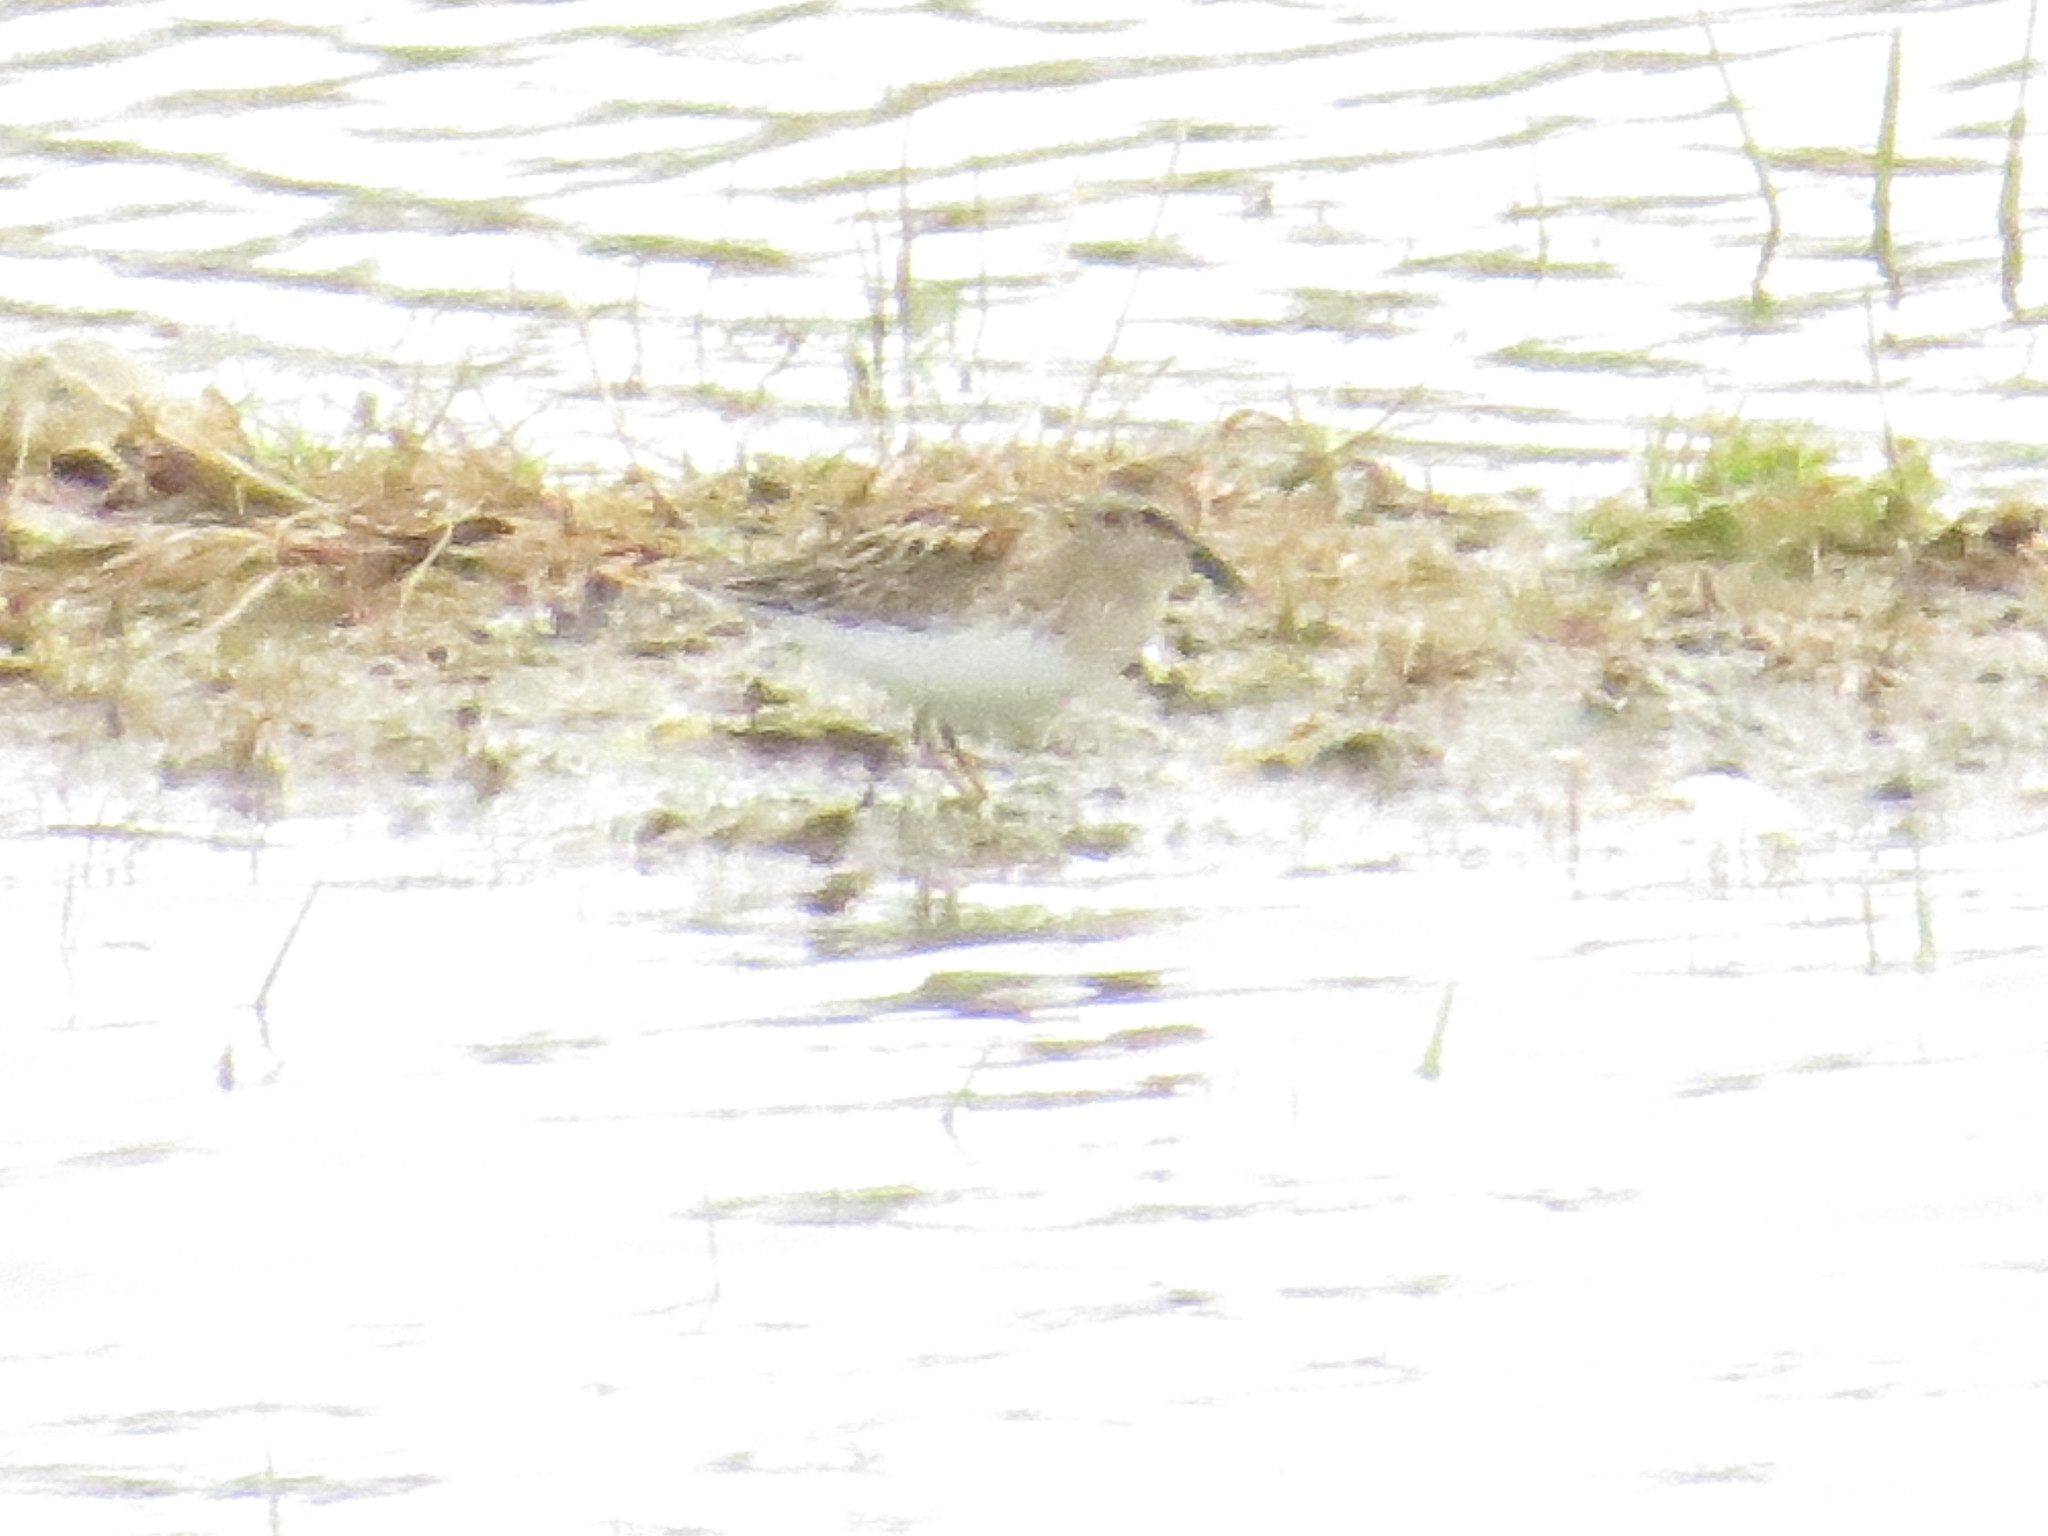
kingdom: Animalia
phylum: Chordata
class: Aves
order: Charadriiformes
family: Scolopacidae
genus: Calidris
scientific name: Calidris minutilla
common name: Least sandpiper
